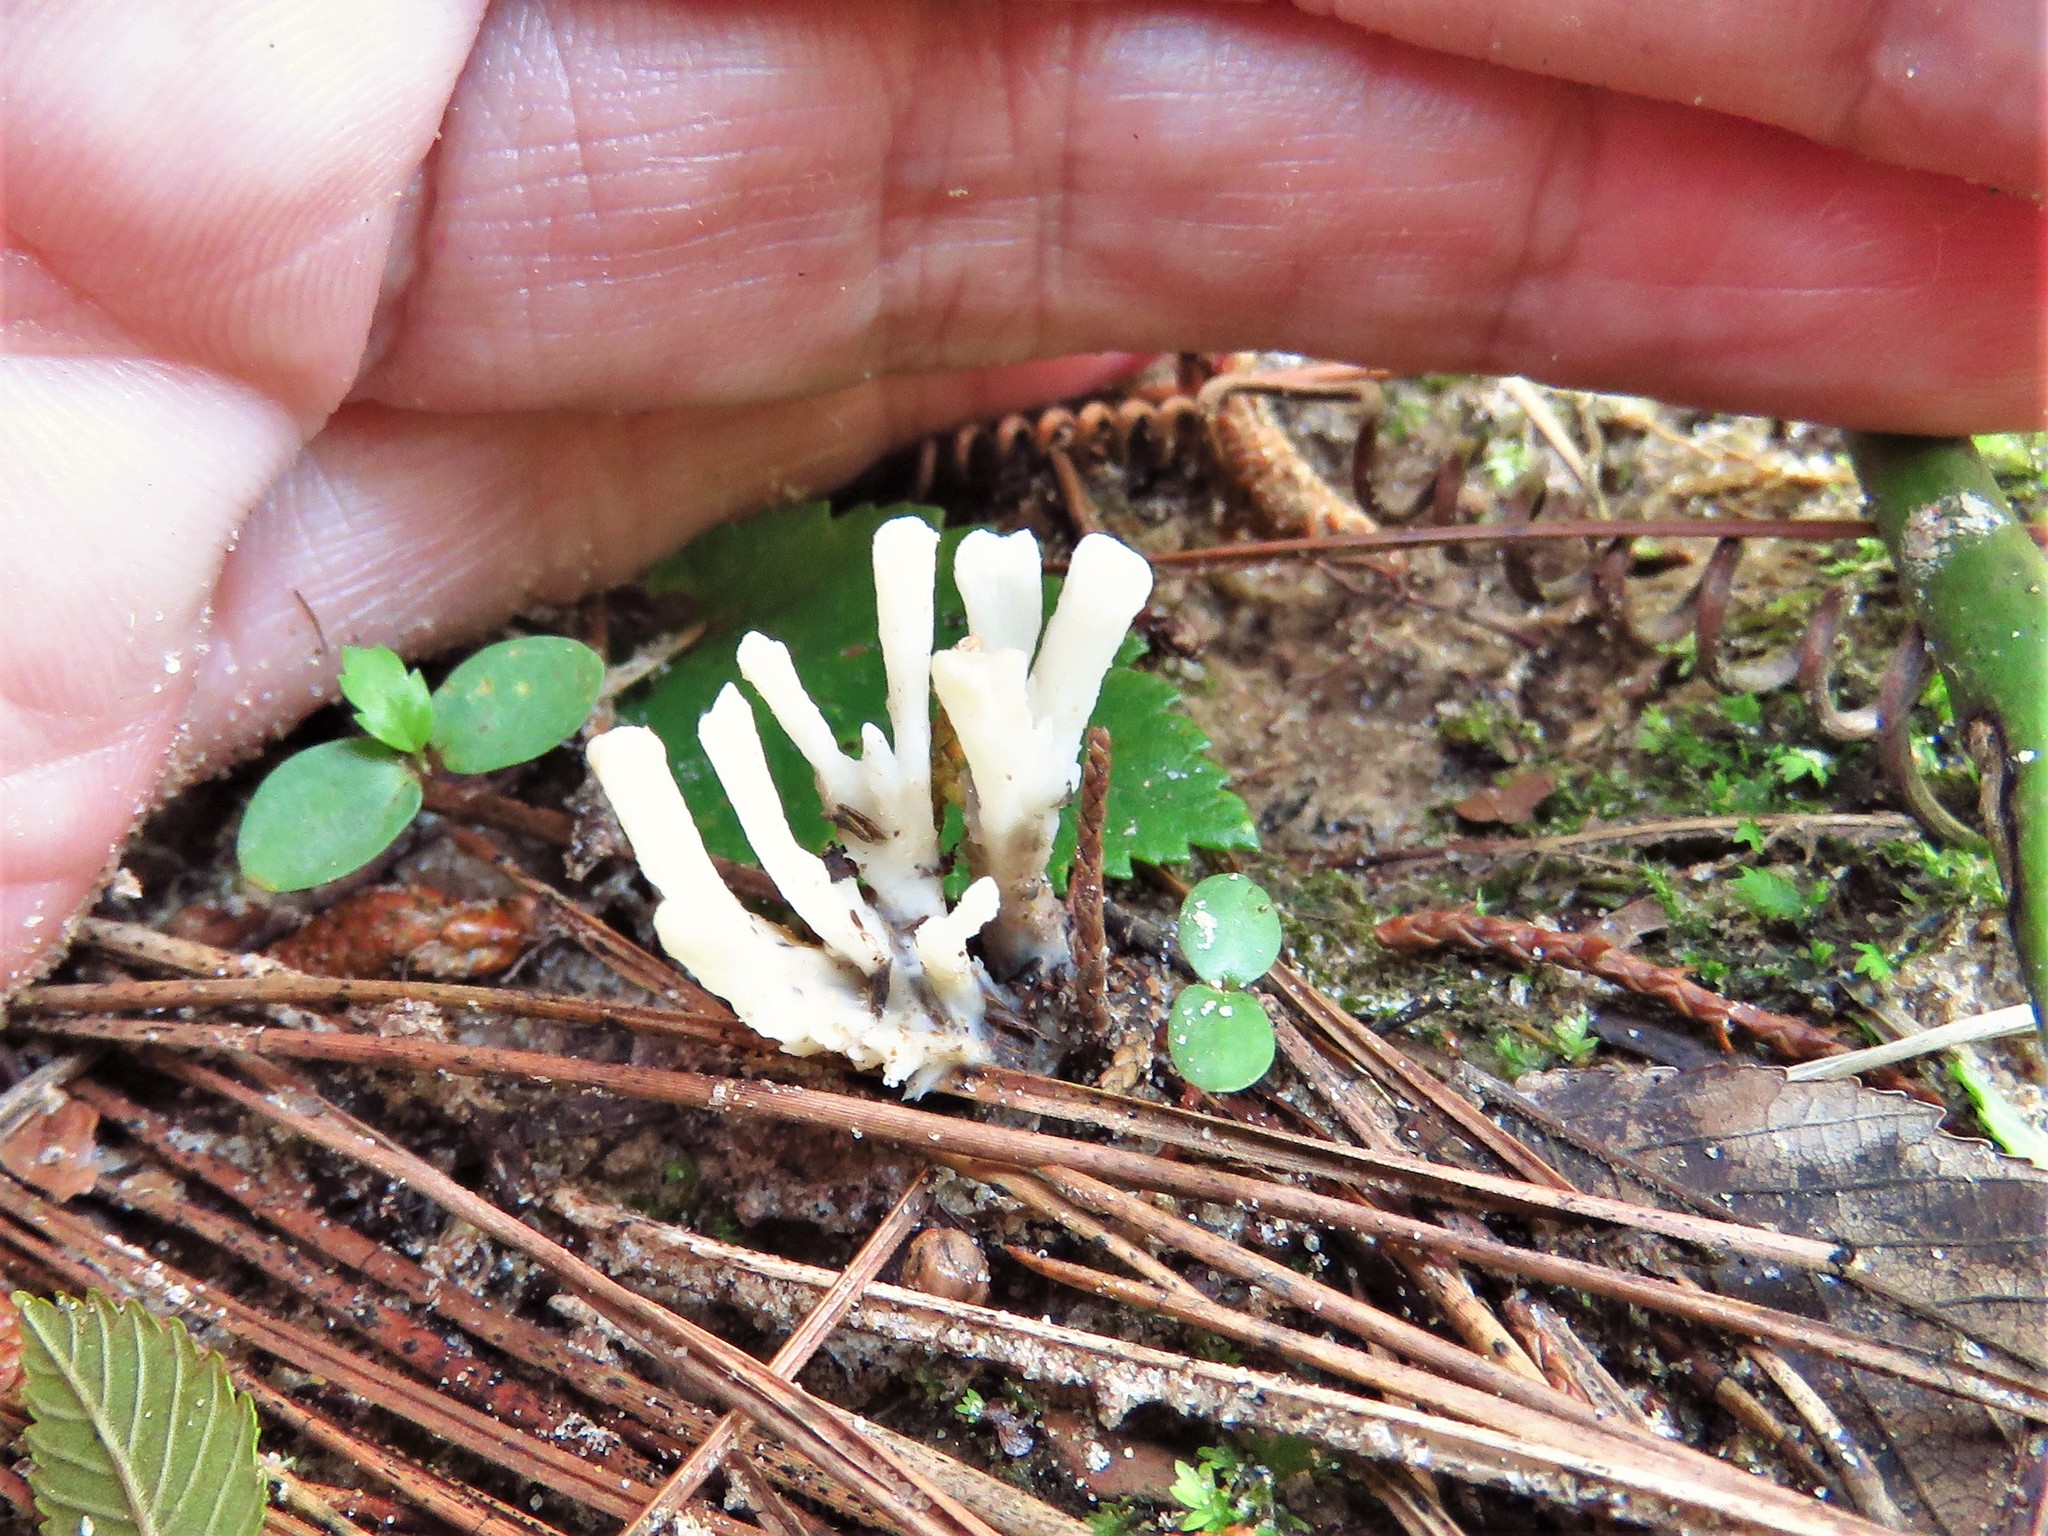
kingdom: Fungi
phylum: Basidiomycota
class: Agaricomycetes
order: Sebacinales
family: Sebacinaceae
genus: Sebacina
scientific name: Sebacina schweinitzii
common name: Jellied false coral fungus
